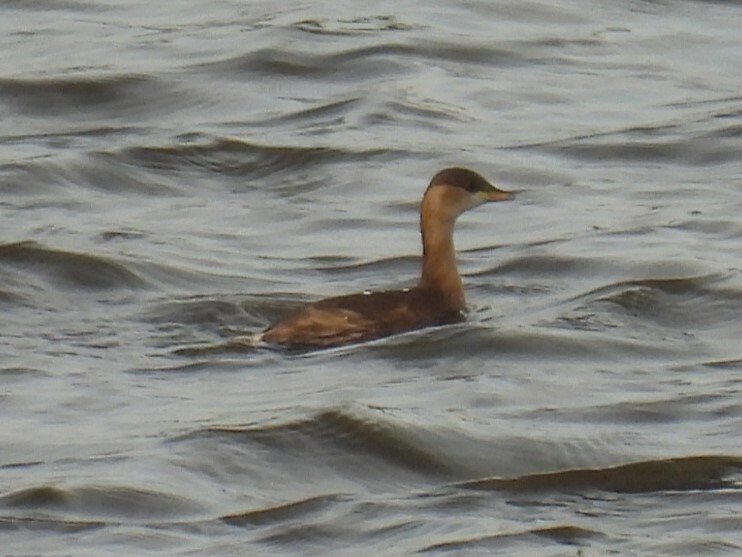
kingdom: Animalia
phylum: Chordata
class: Aves
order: Podicipediformes
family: Podicipedidae
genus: Tachybaptus
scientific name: Tachybaptus ruficollis
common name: Little grebe
